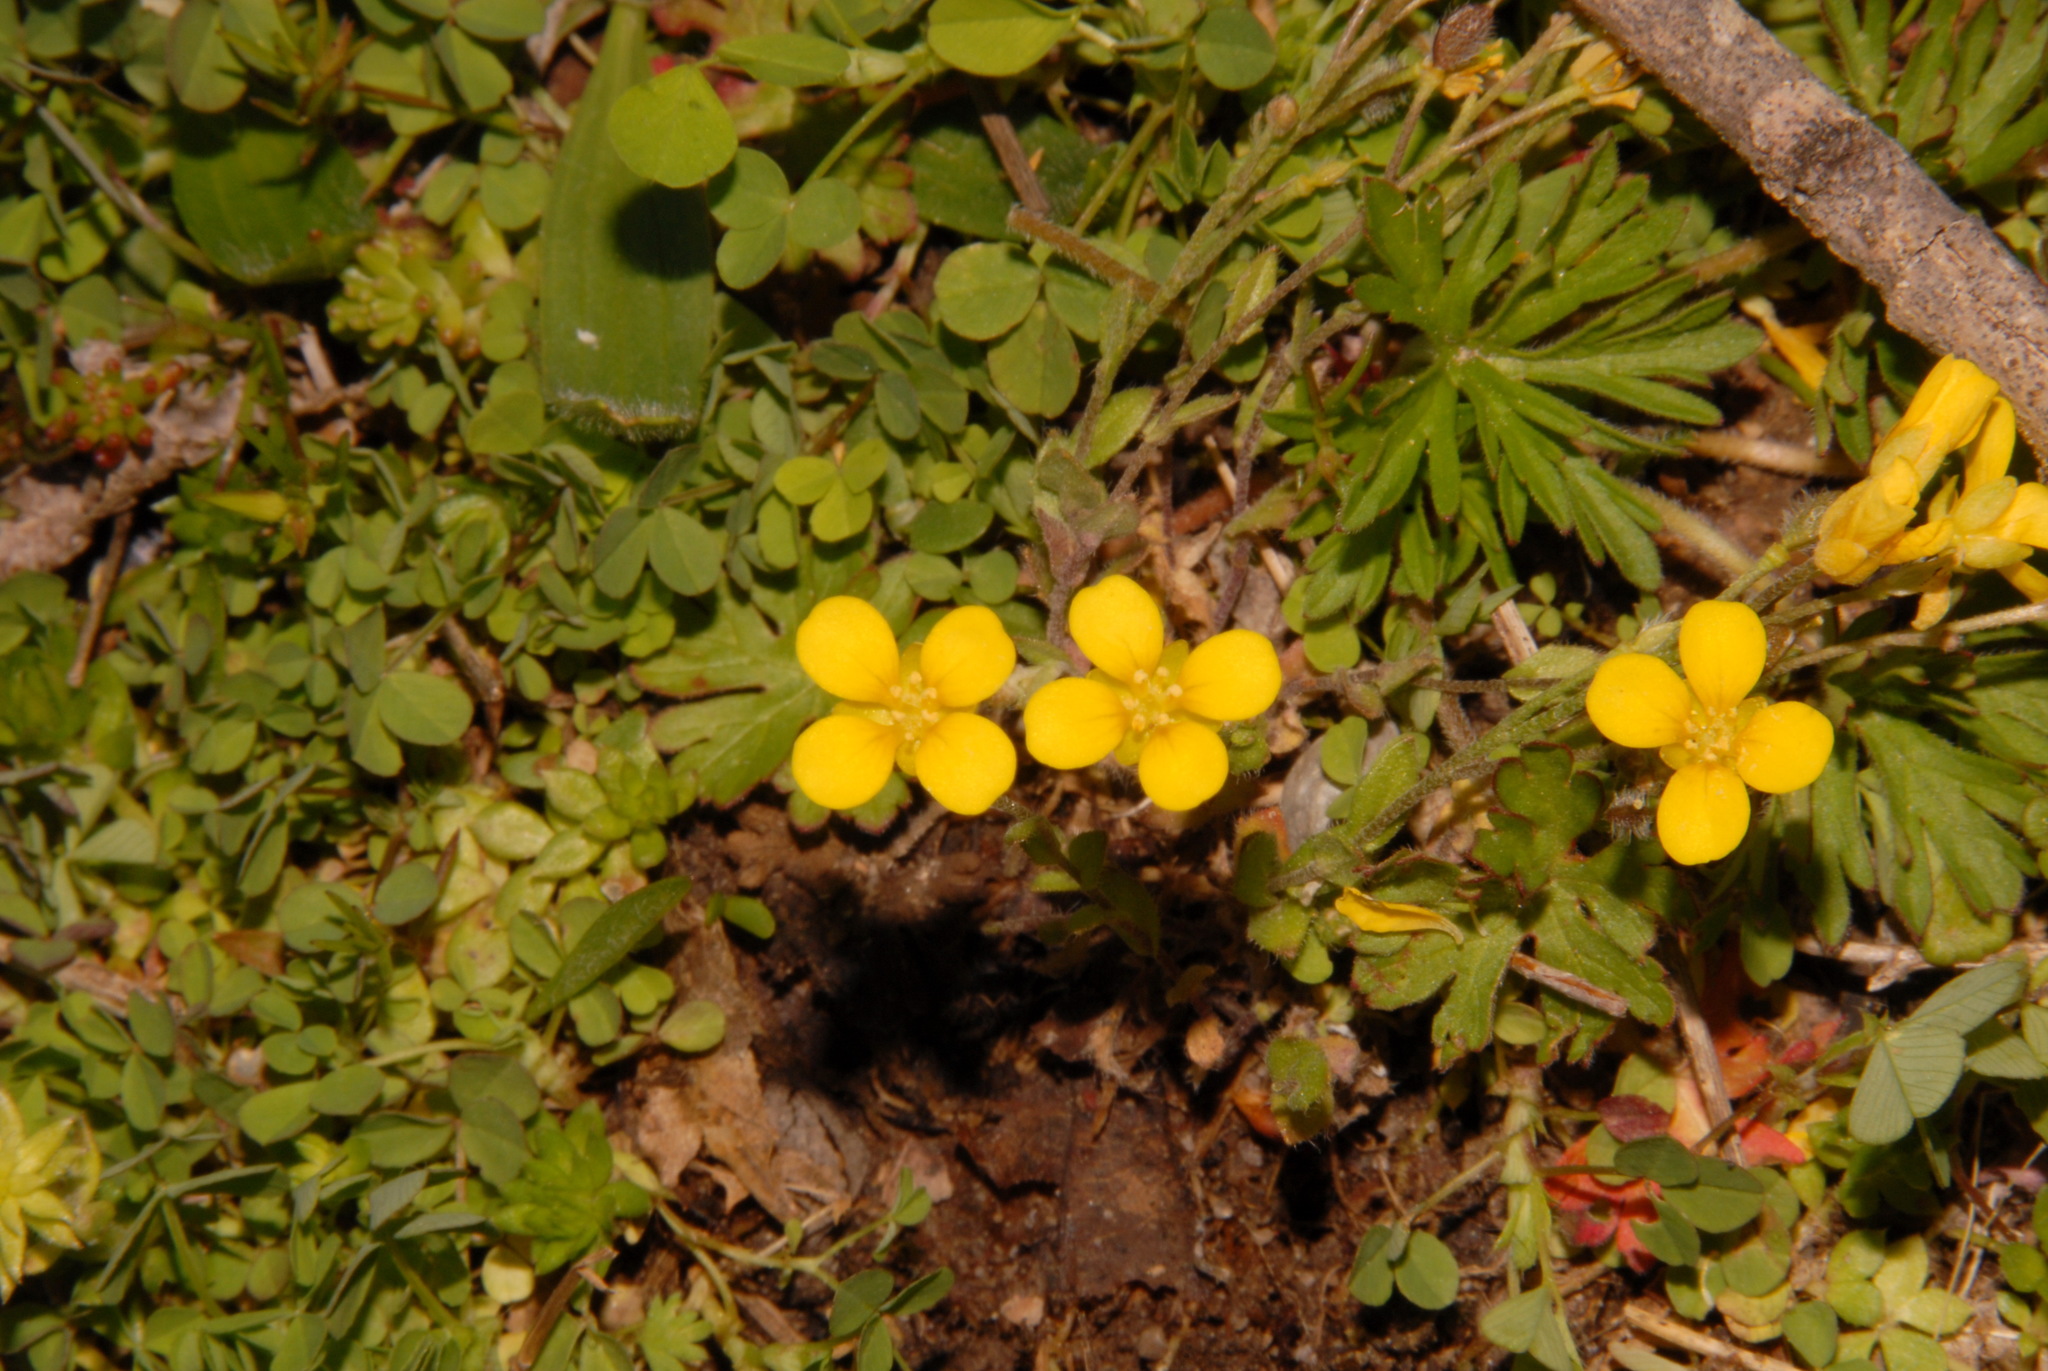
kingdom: Plantae
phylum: Tracheophyta
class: Magnoliopsida
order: Brassicales
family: Brassicaceae
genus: Paysonia
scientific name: Paysonia lescurii
